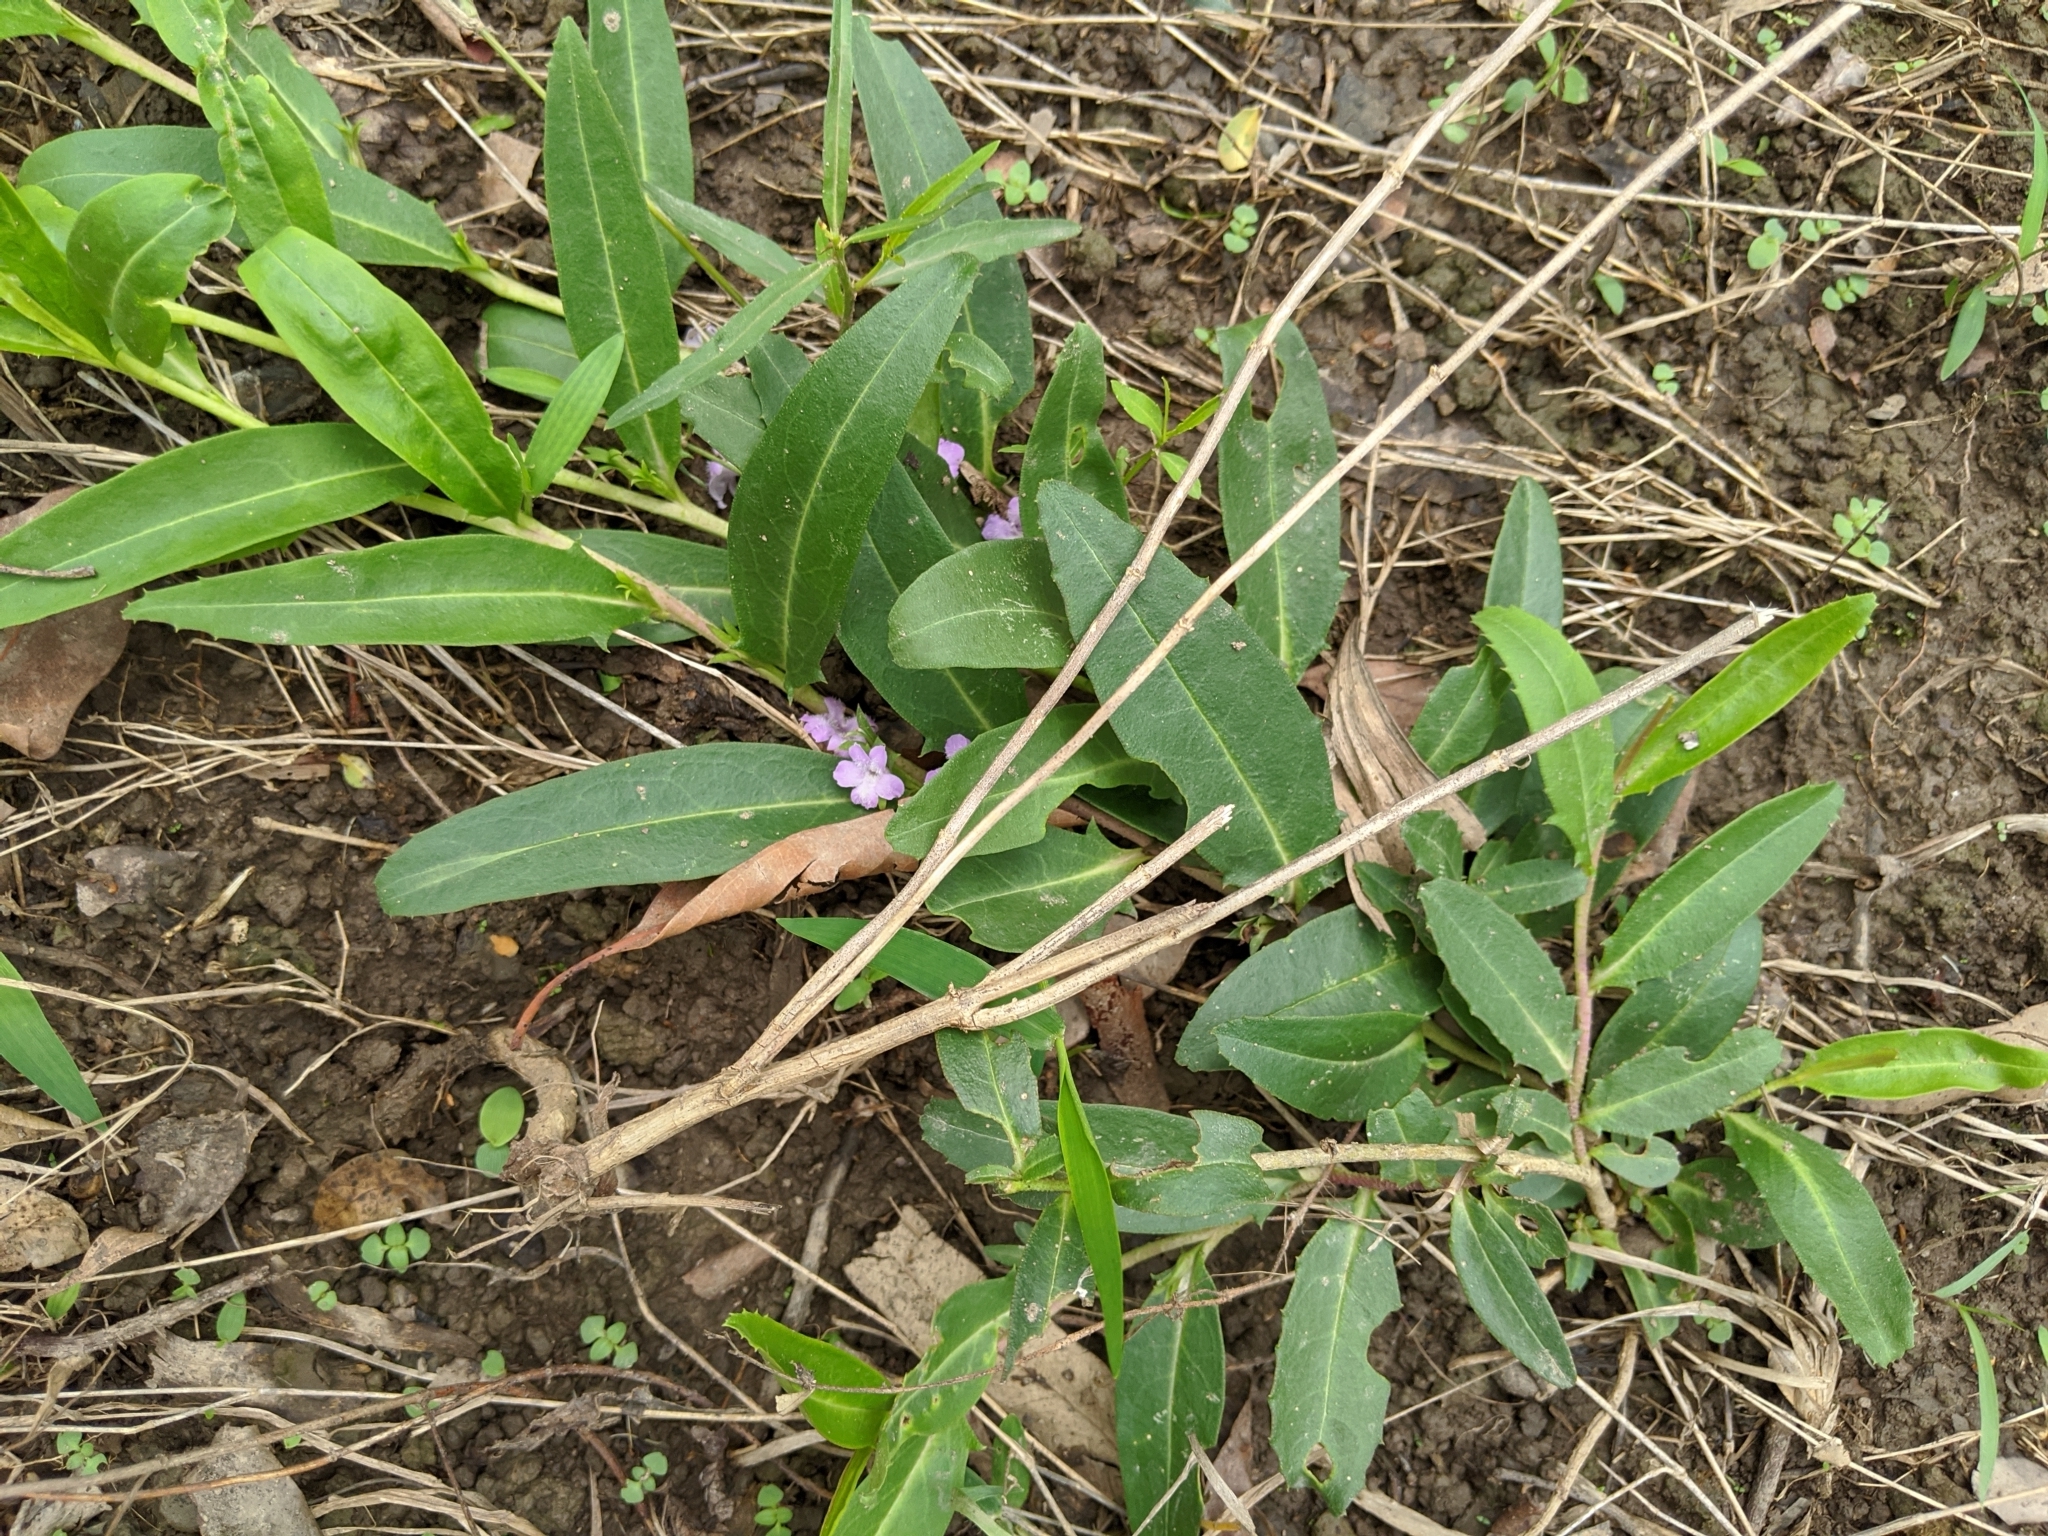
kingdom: Plantae
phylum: Tracheophyta
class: Magnoliopsida
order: Lamiales
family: Scrophulariaceae
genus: Eremophila
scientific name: Eremophila debilis
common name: Winter-apple
